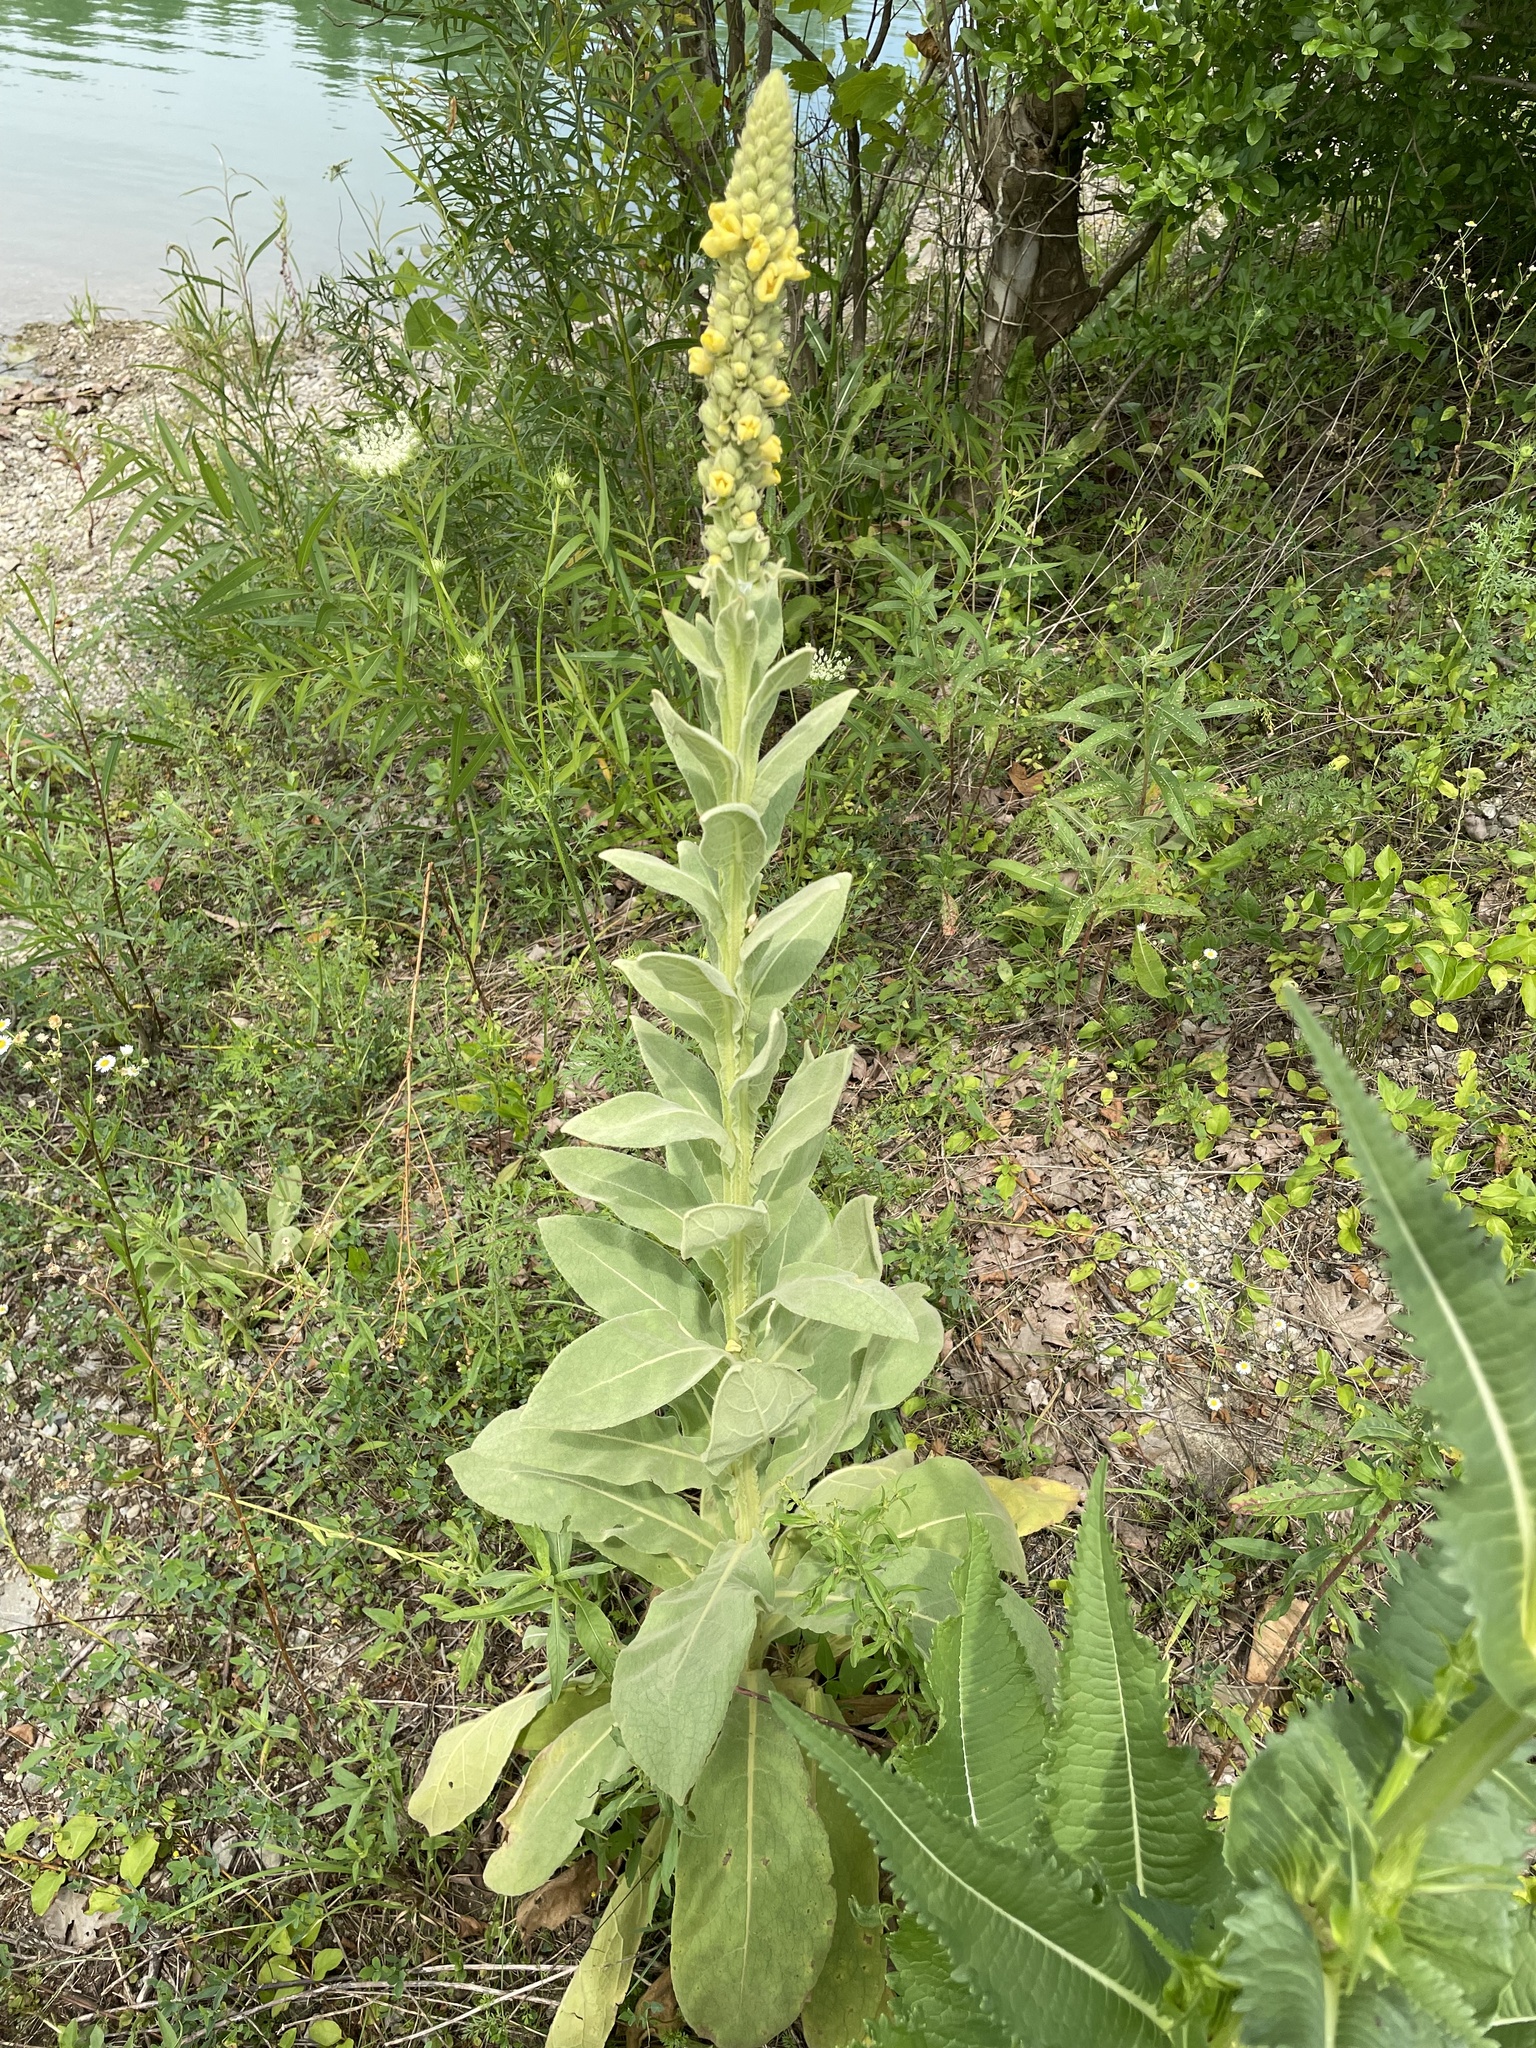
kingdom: Plantae
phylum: Tracheophyta
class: Magnoliopsida
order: Lamiales
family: Scrophulariaceae
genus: Verbascum
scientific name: Verbascum thapsus
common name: Common mullein
